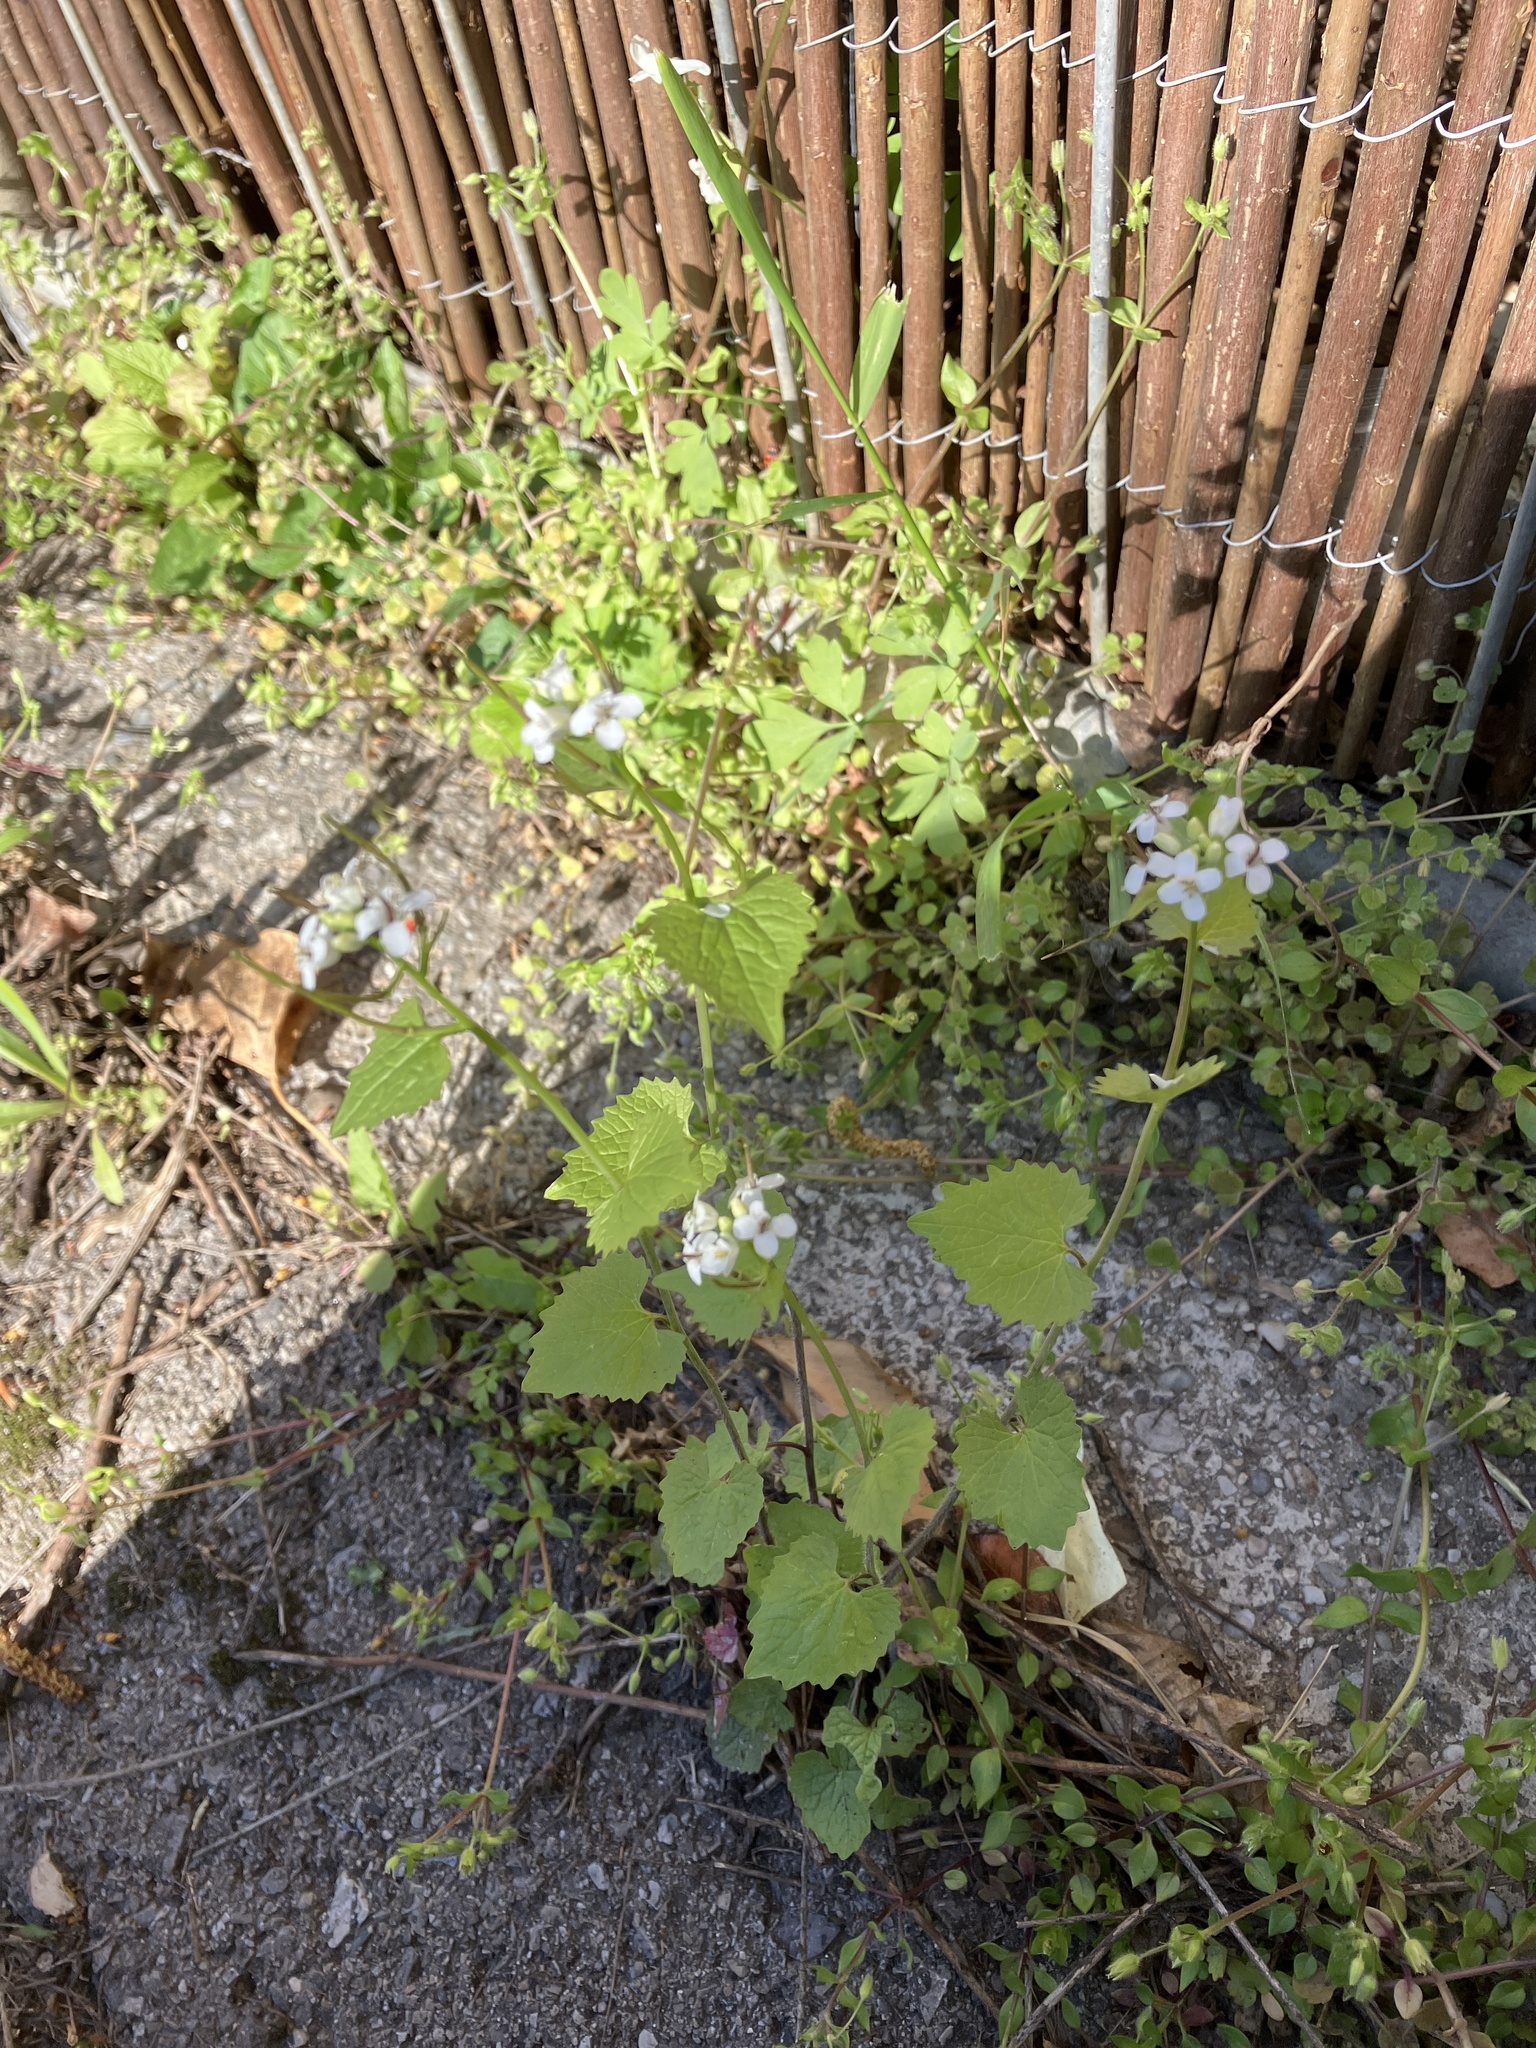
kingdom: Plantae
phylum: Tracheophyta
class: Magnoliopsida
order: Brassicales
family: Brassicaceae
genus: Alliaria
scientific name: Alliaria petiolata
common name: Garlic mustard
